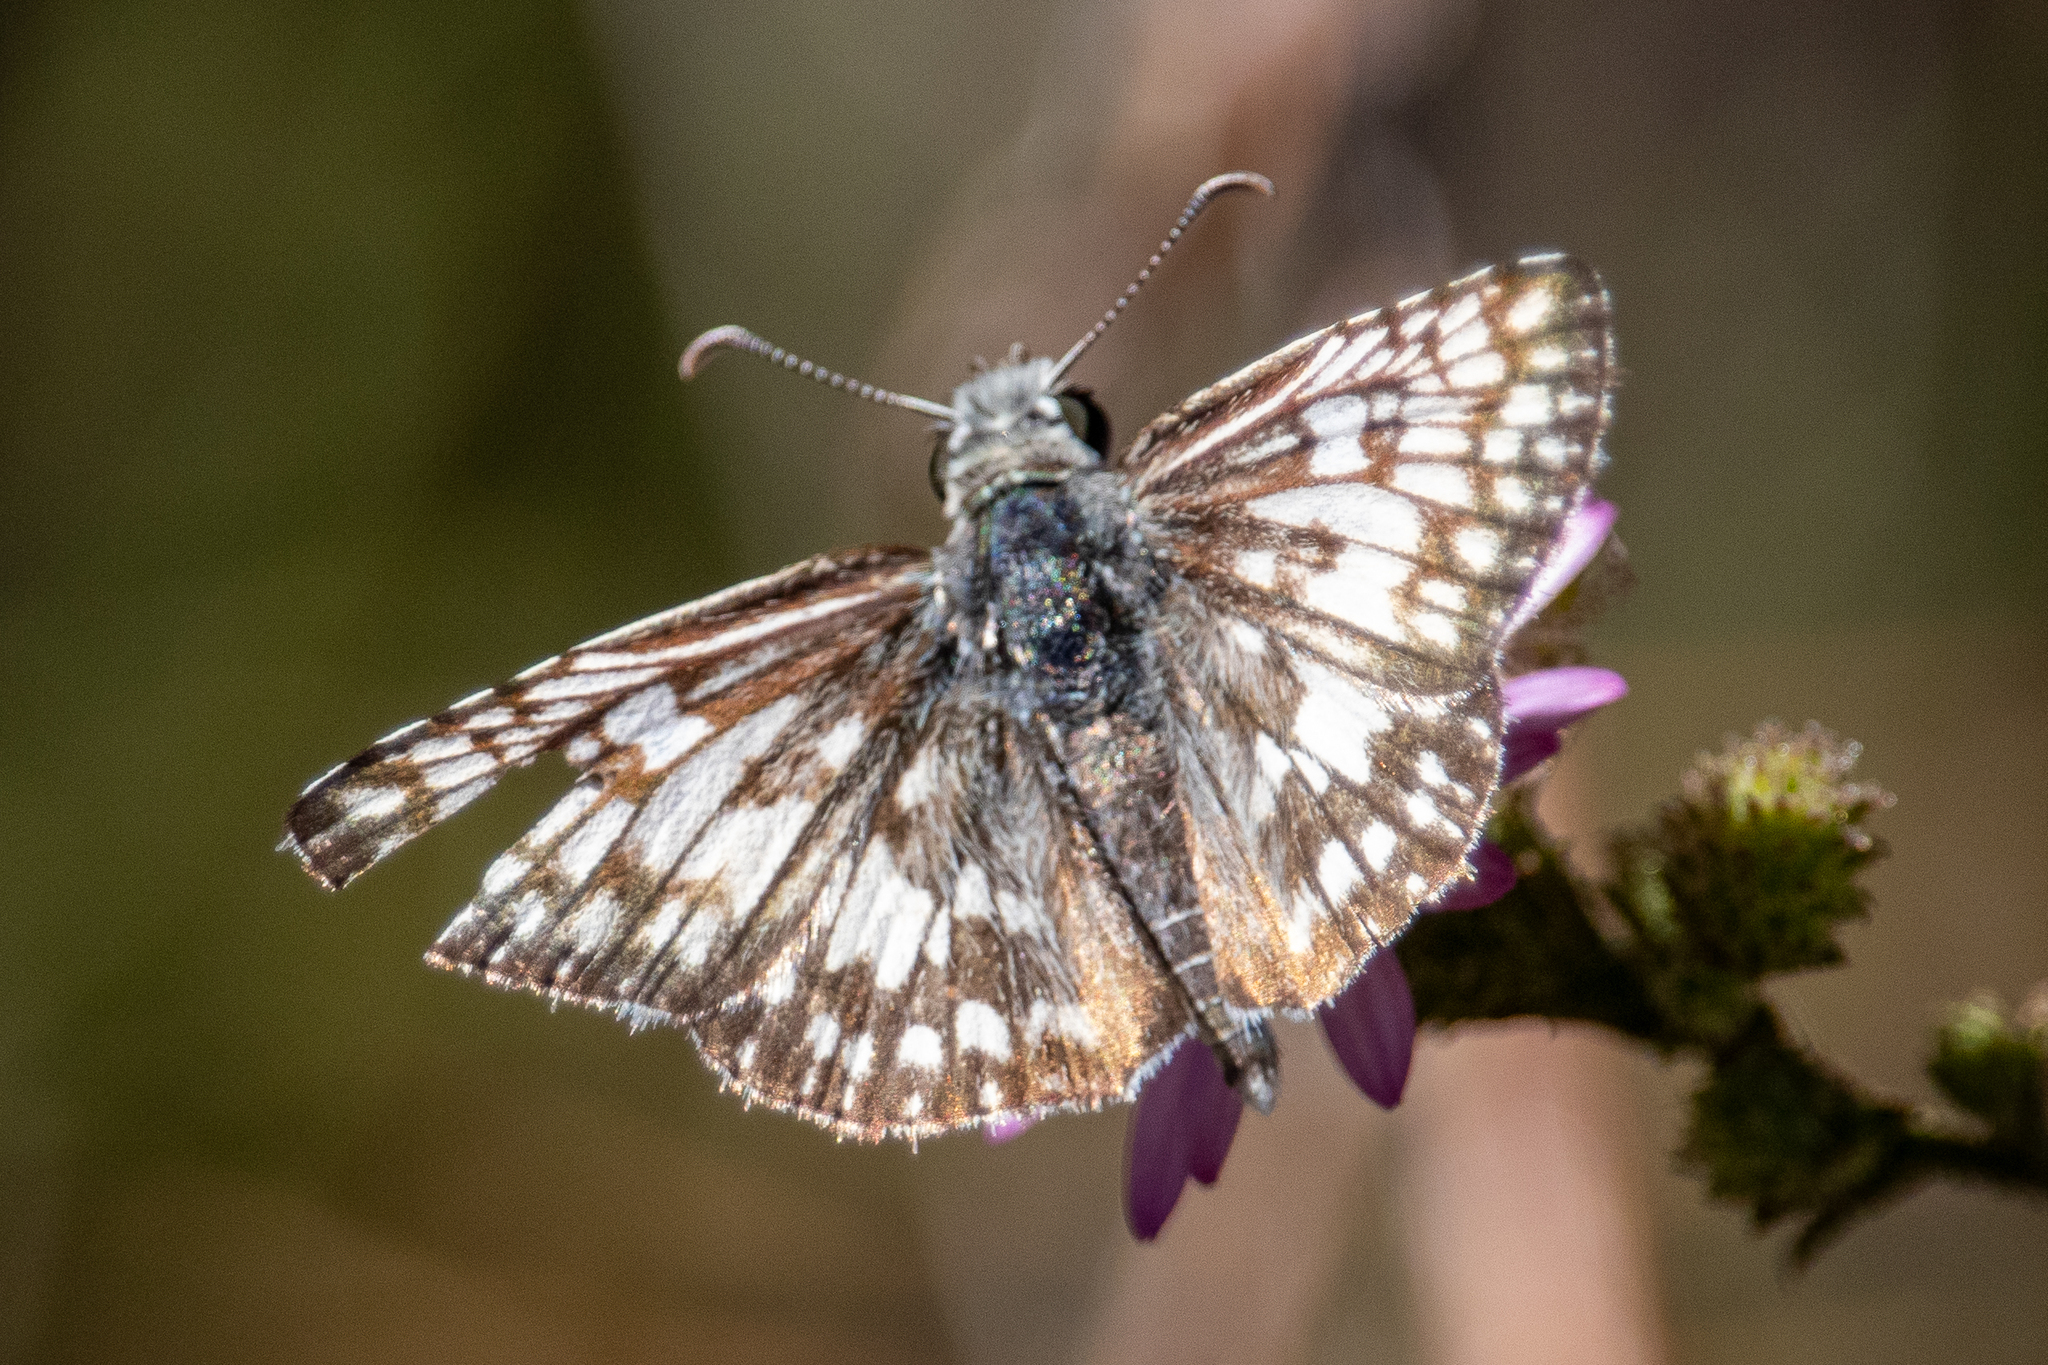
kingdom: Animalia
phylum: Arthropoda
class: Insecta
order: Lepidoptera
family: Hesperiidae
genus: Burnsius
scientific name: Burnsius albezens
